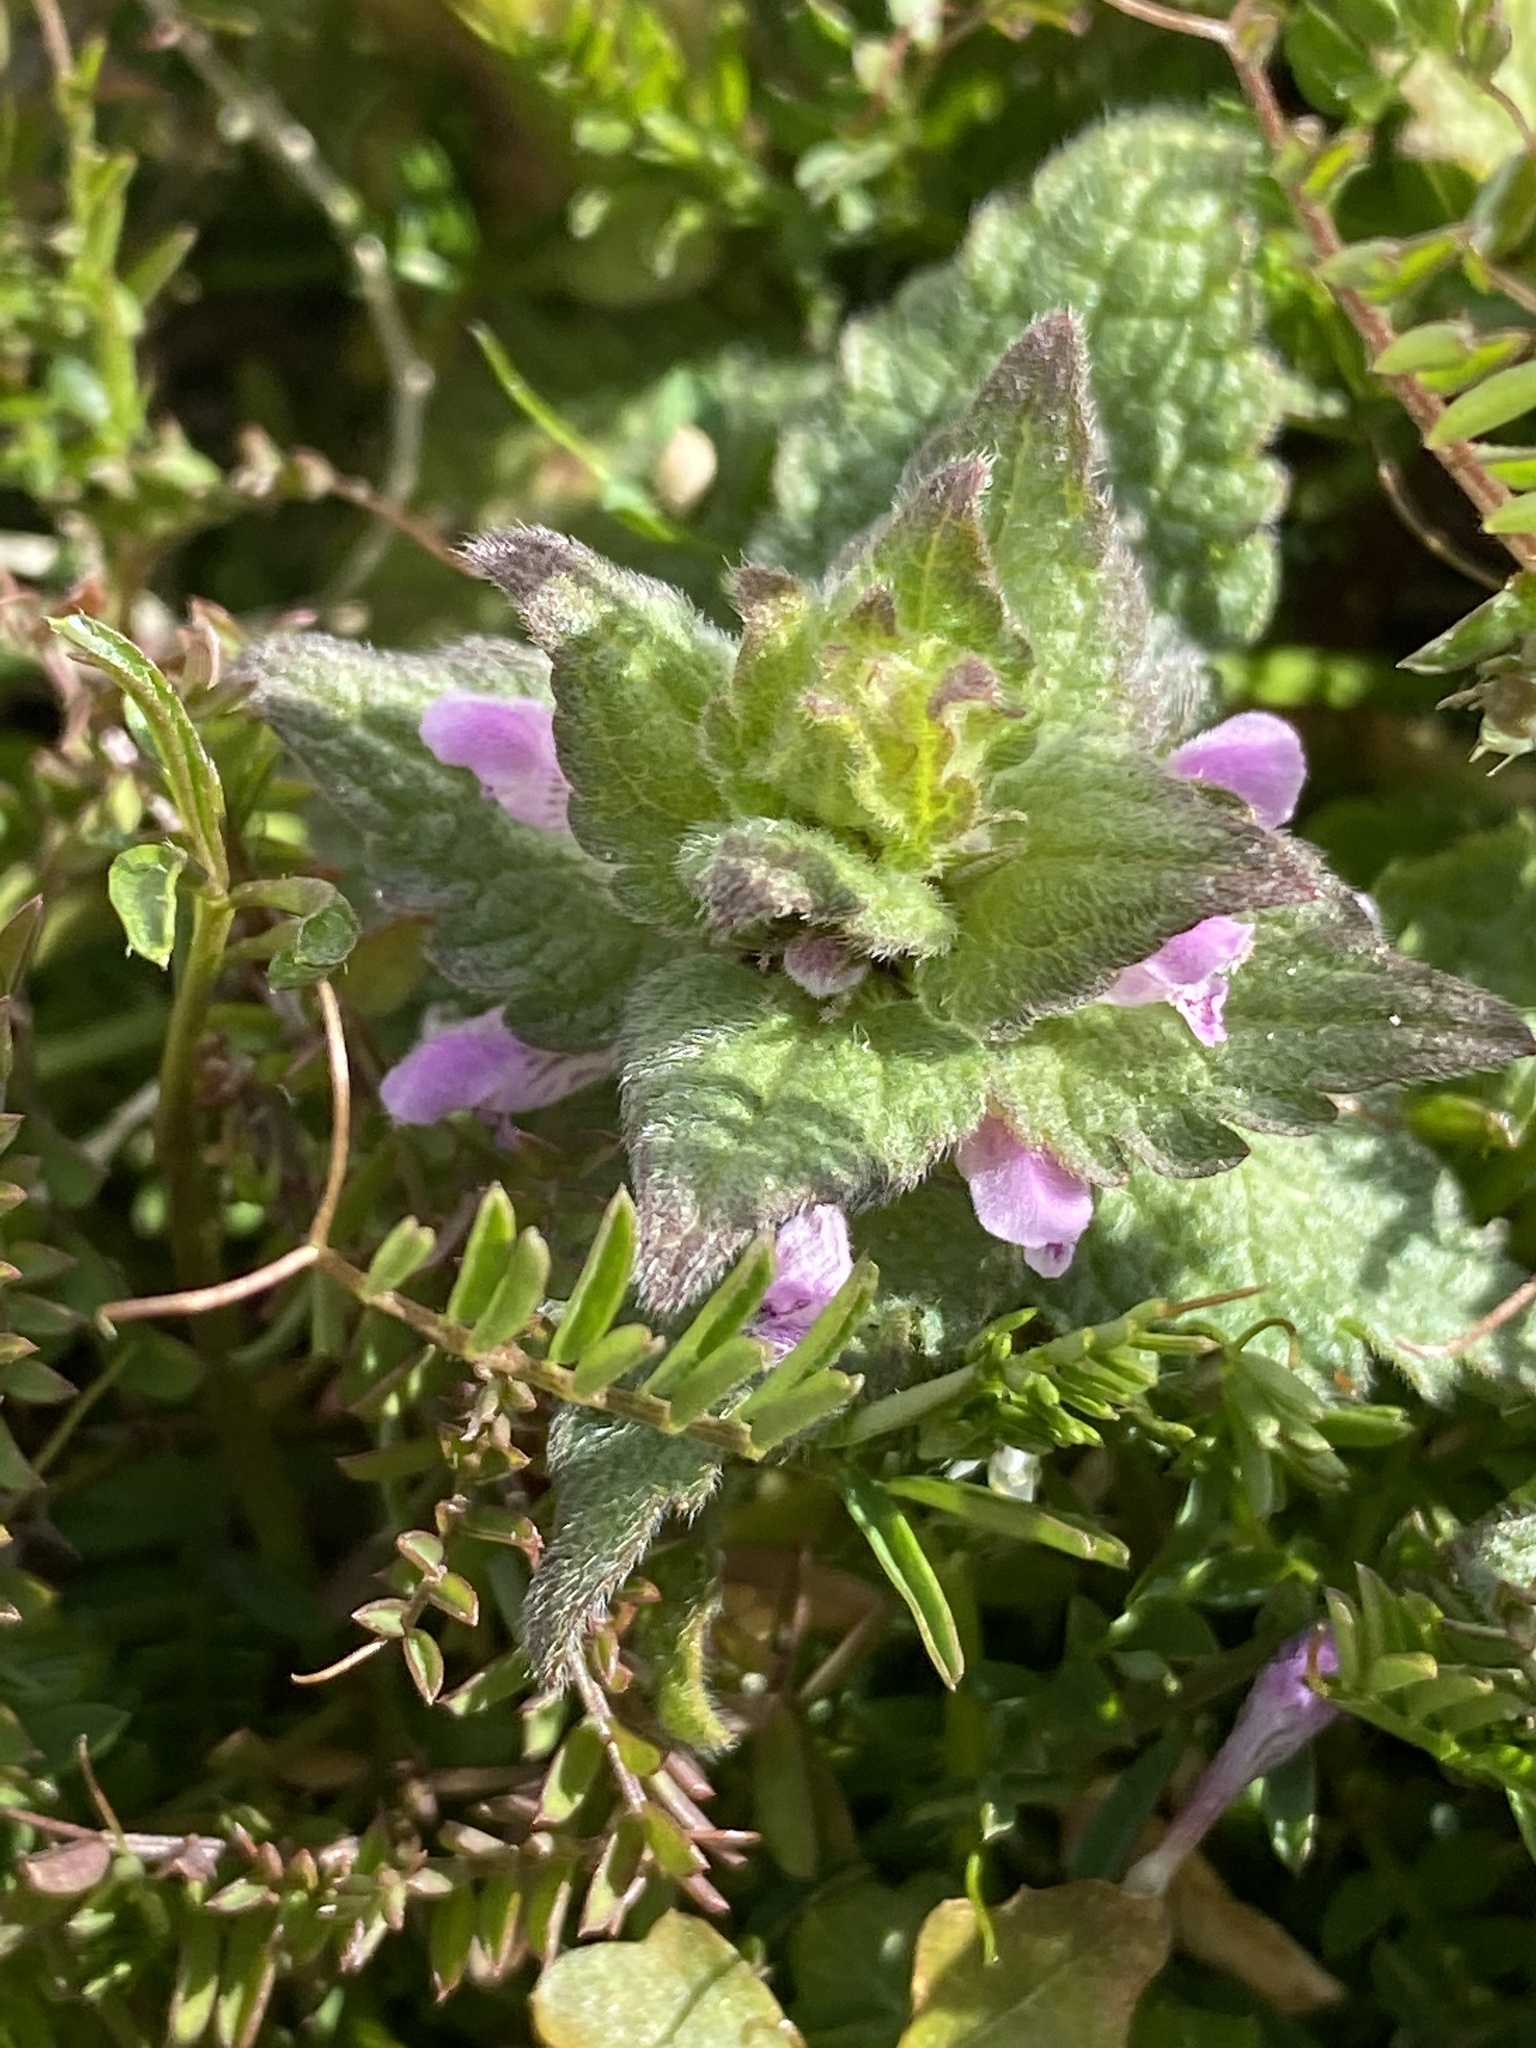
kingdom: Plantae
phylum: Tracheophyta
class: Magnoliopsida
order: Lamiales
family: Lamiaceae
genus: Lamium
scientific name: Lamium purpureum
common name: Red dead-nettle
